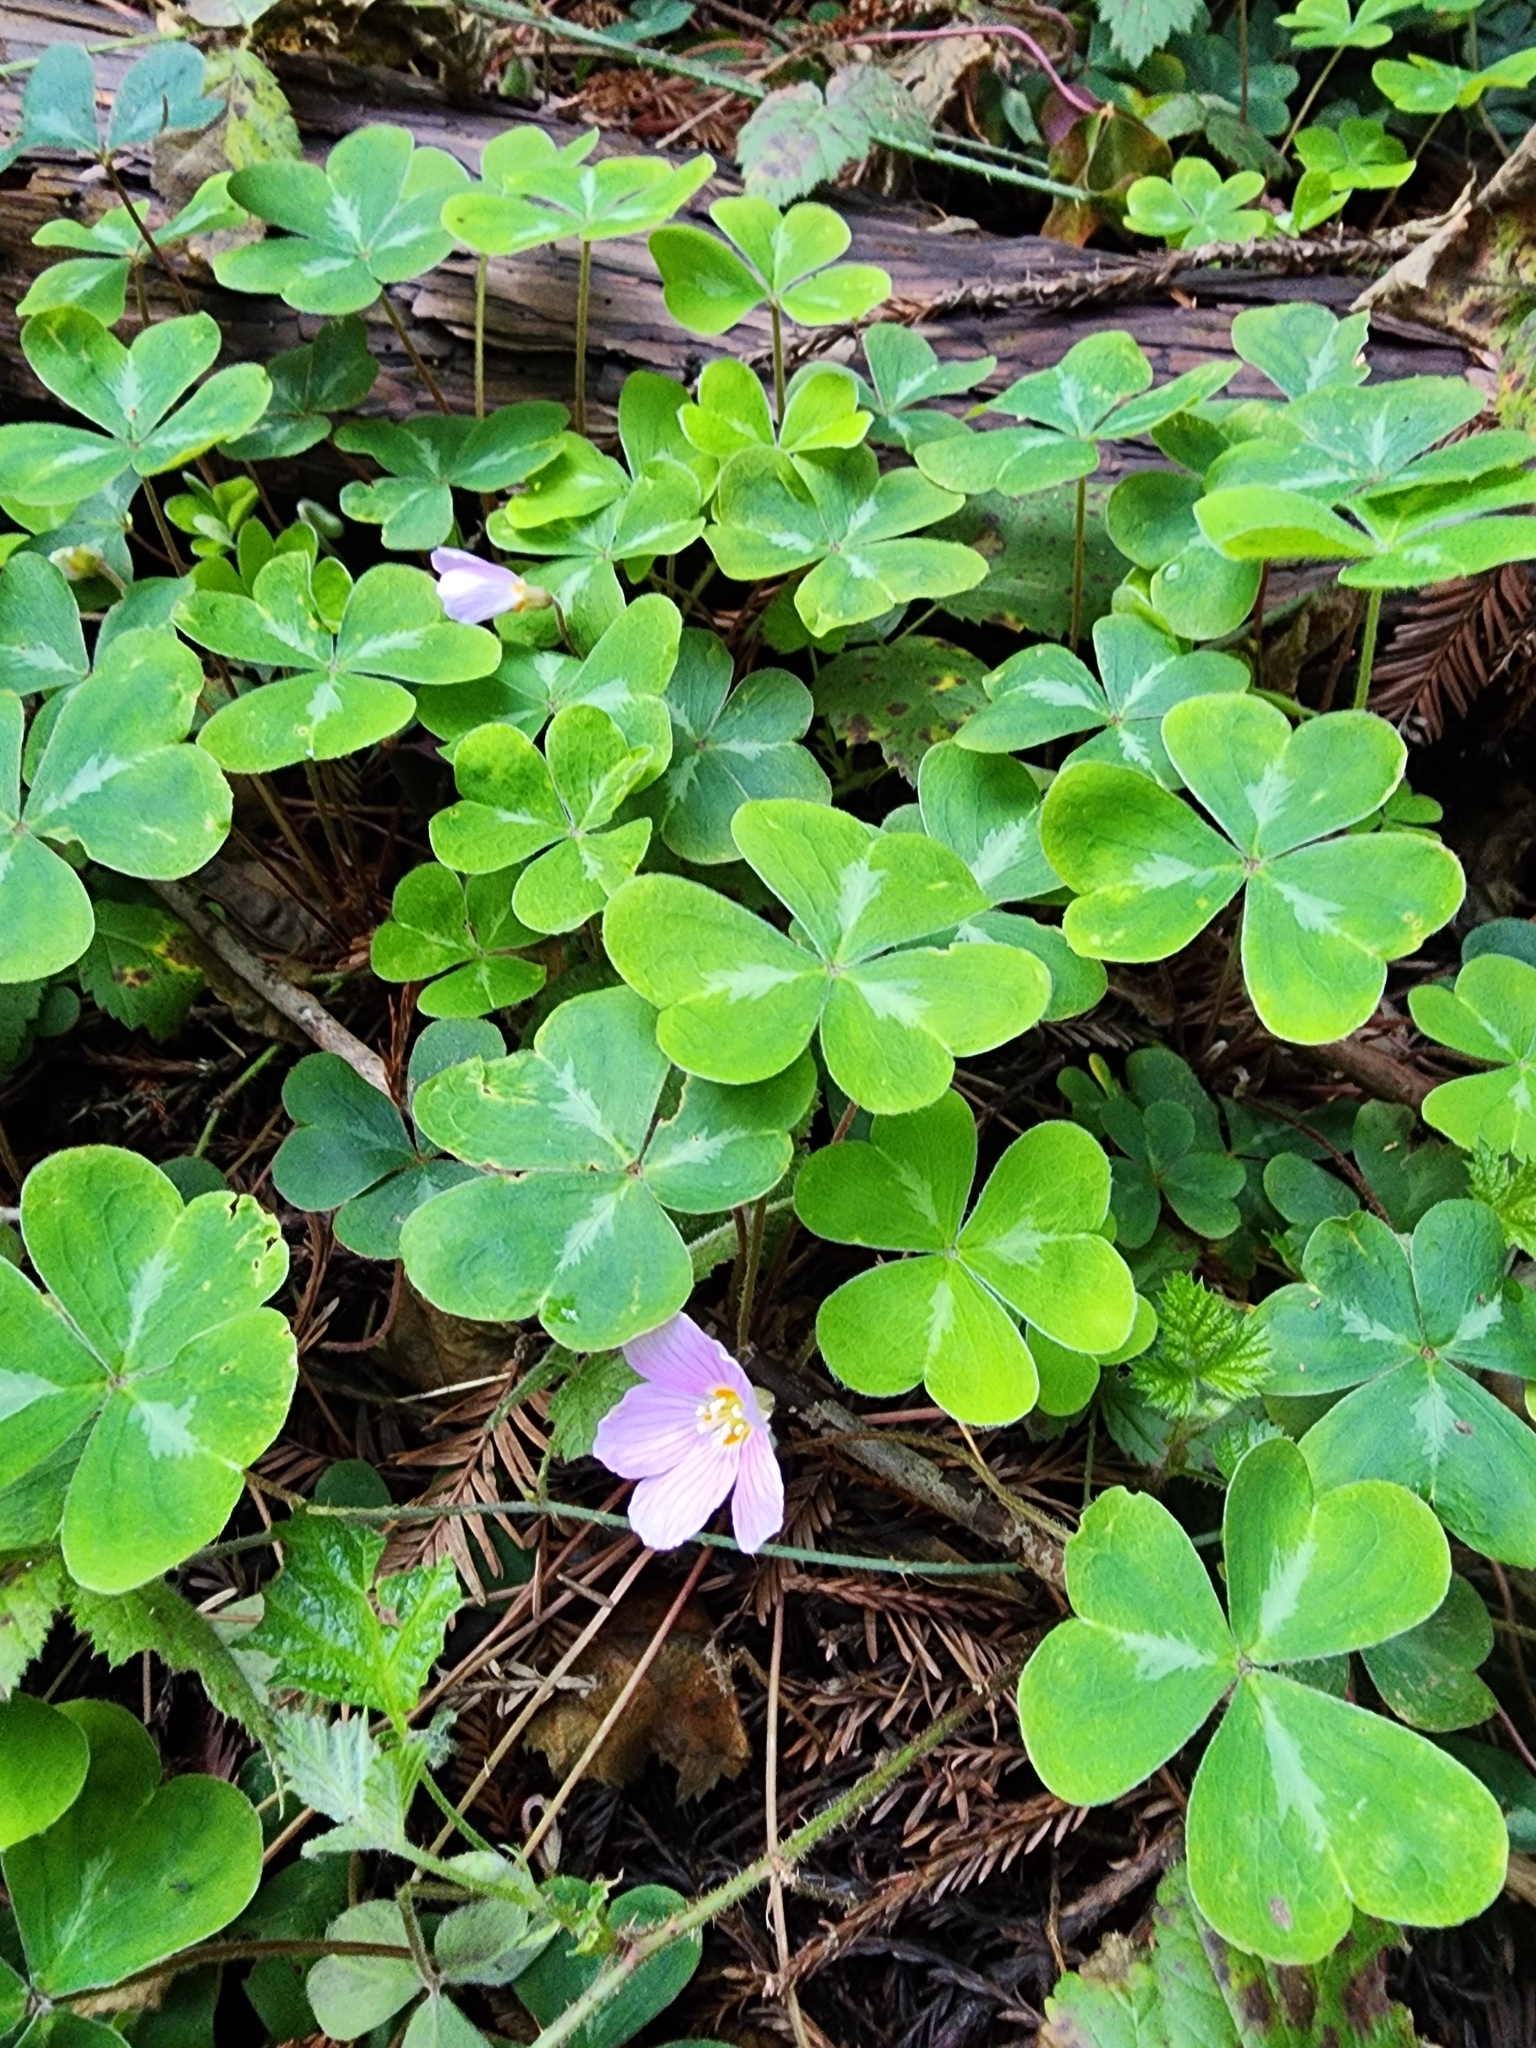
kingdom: Plantae
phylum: Tracheophyta
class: Magnoliopsida
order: Oxalidales
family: Oxalidaceae
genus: Oxalis
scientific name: Oxalis oregana
